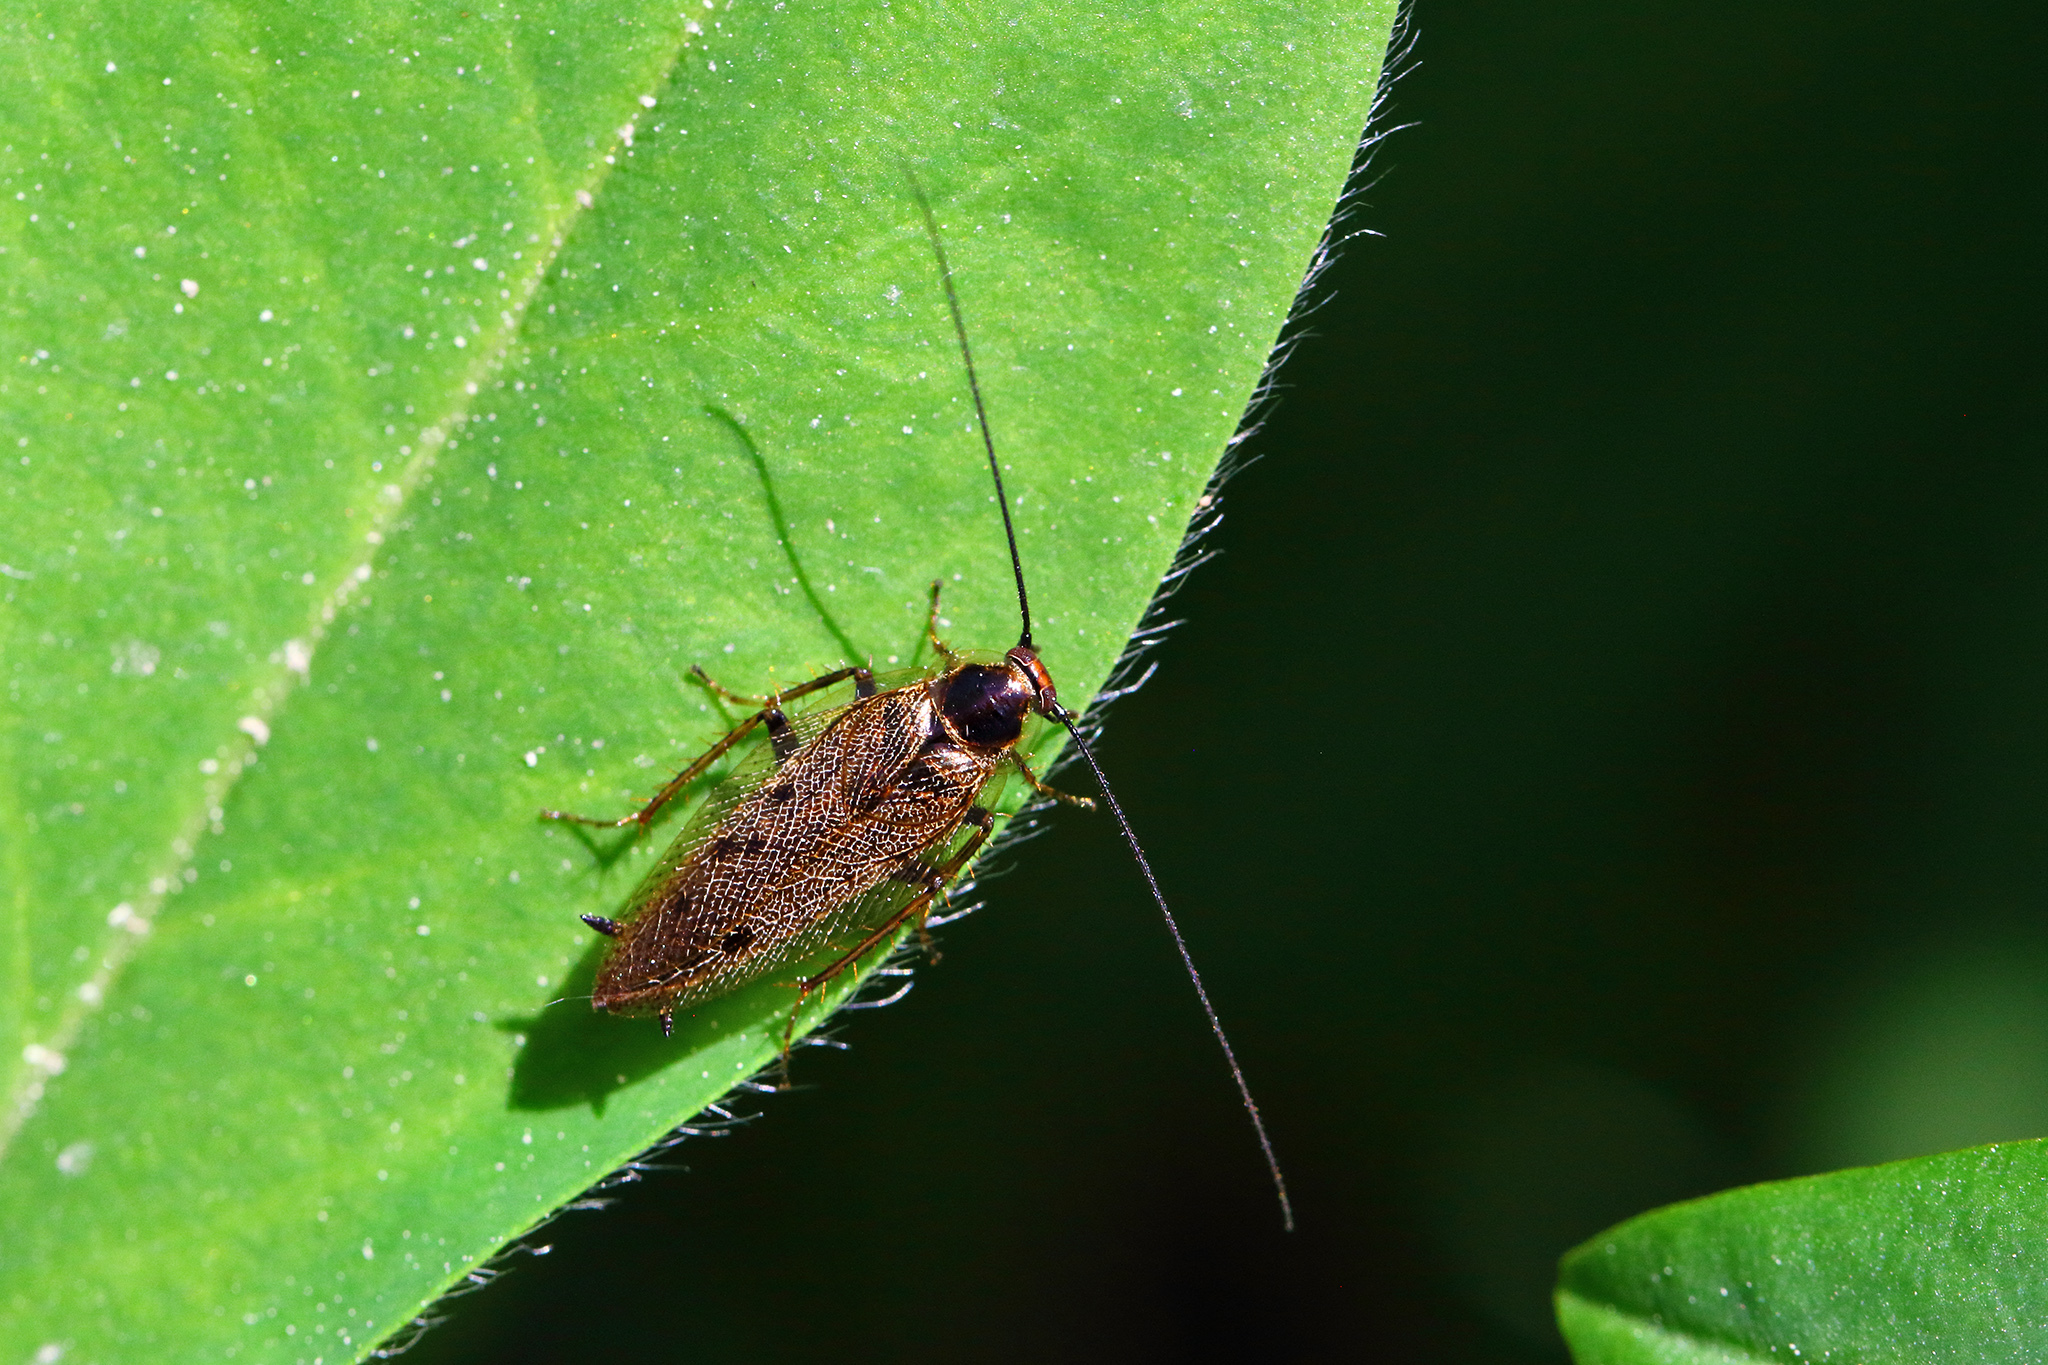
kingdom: Animalia
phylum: Arthropoda
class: Insecta
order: Blattodea
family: Ectobiidae
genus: Ectobius
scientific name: Ectobius lapponicus
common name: Dusky cockroach
